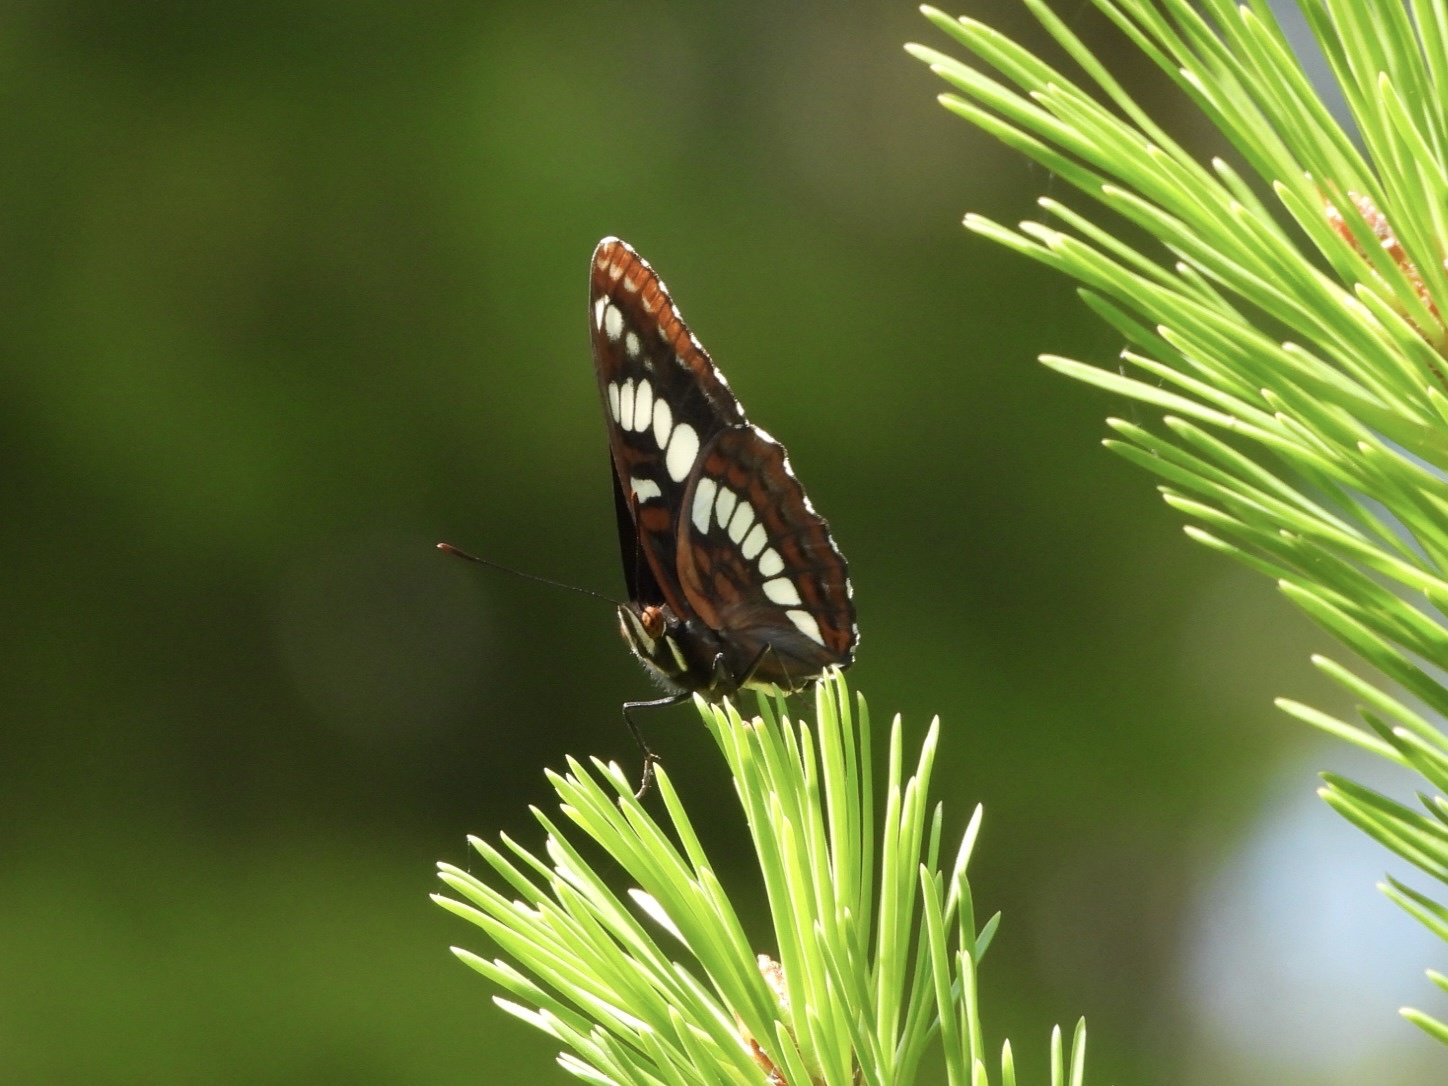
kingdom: Animalia
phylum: Arthropoda
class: Insecta
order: Lepidoptera
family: Nymphalidae
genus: Limenitis
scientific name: Limenitis lorquini
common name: Lorquin's admiral
